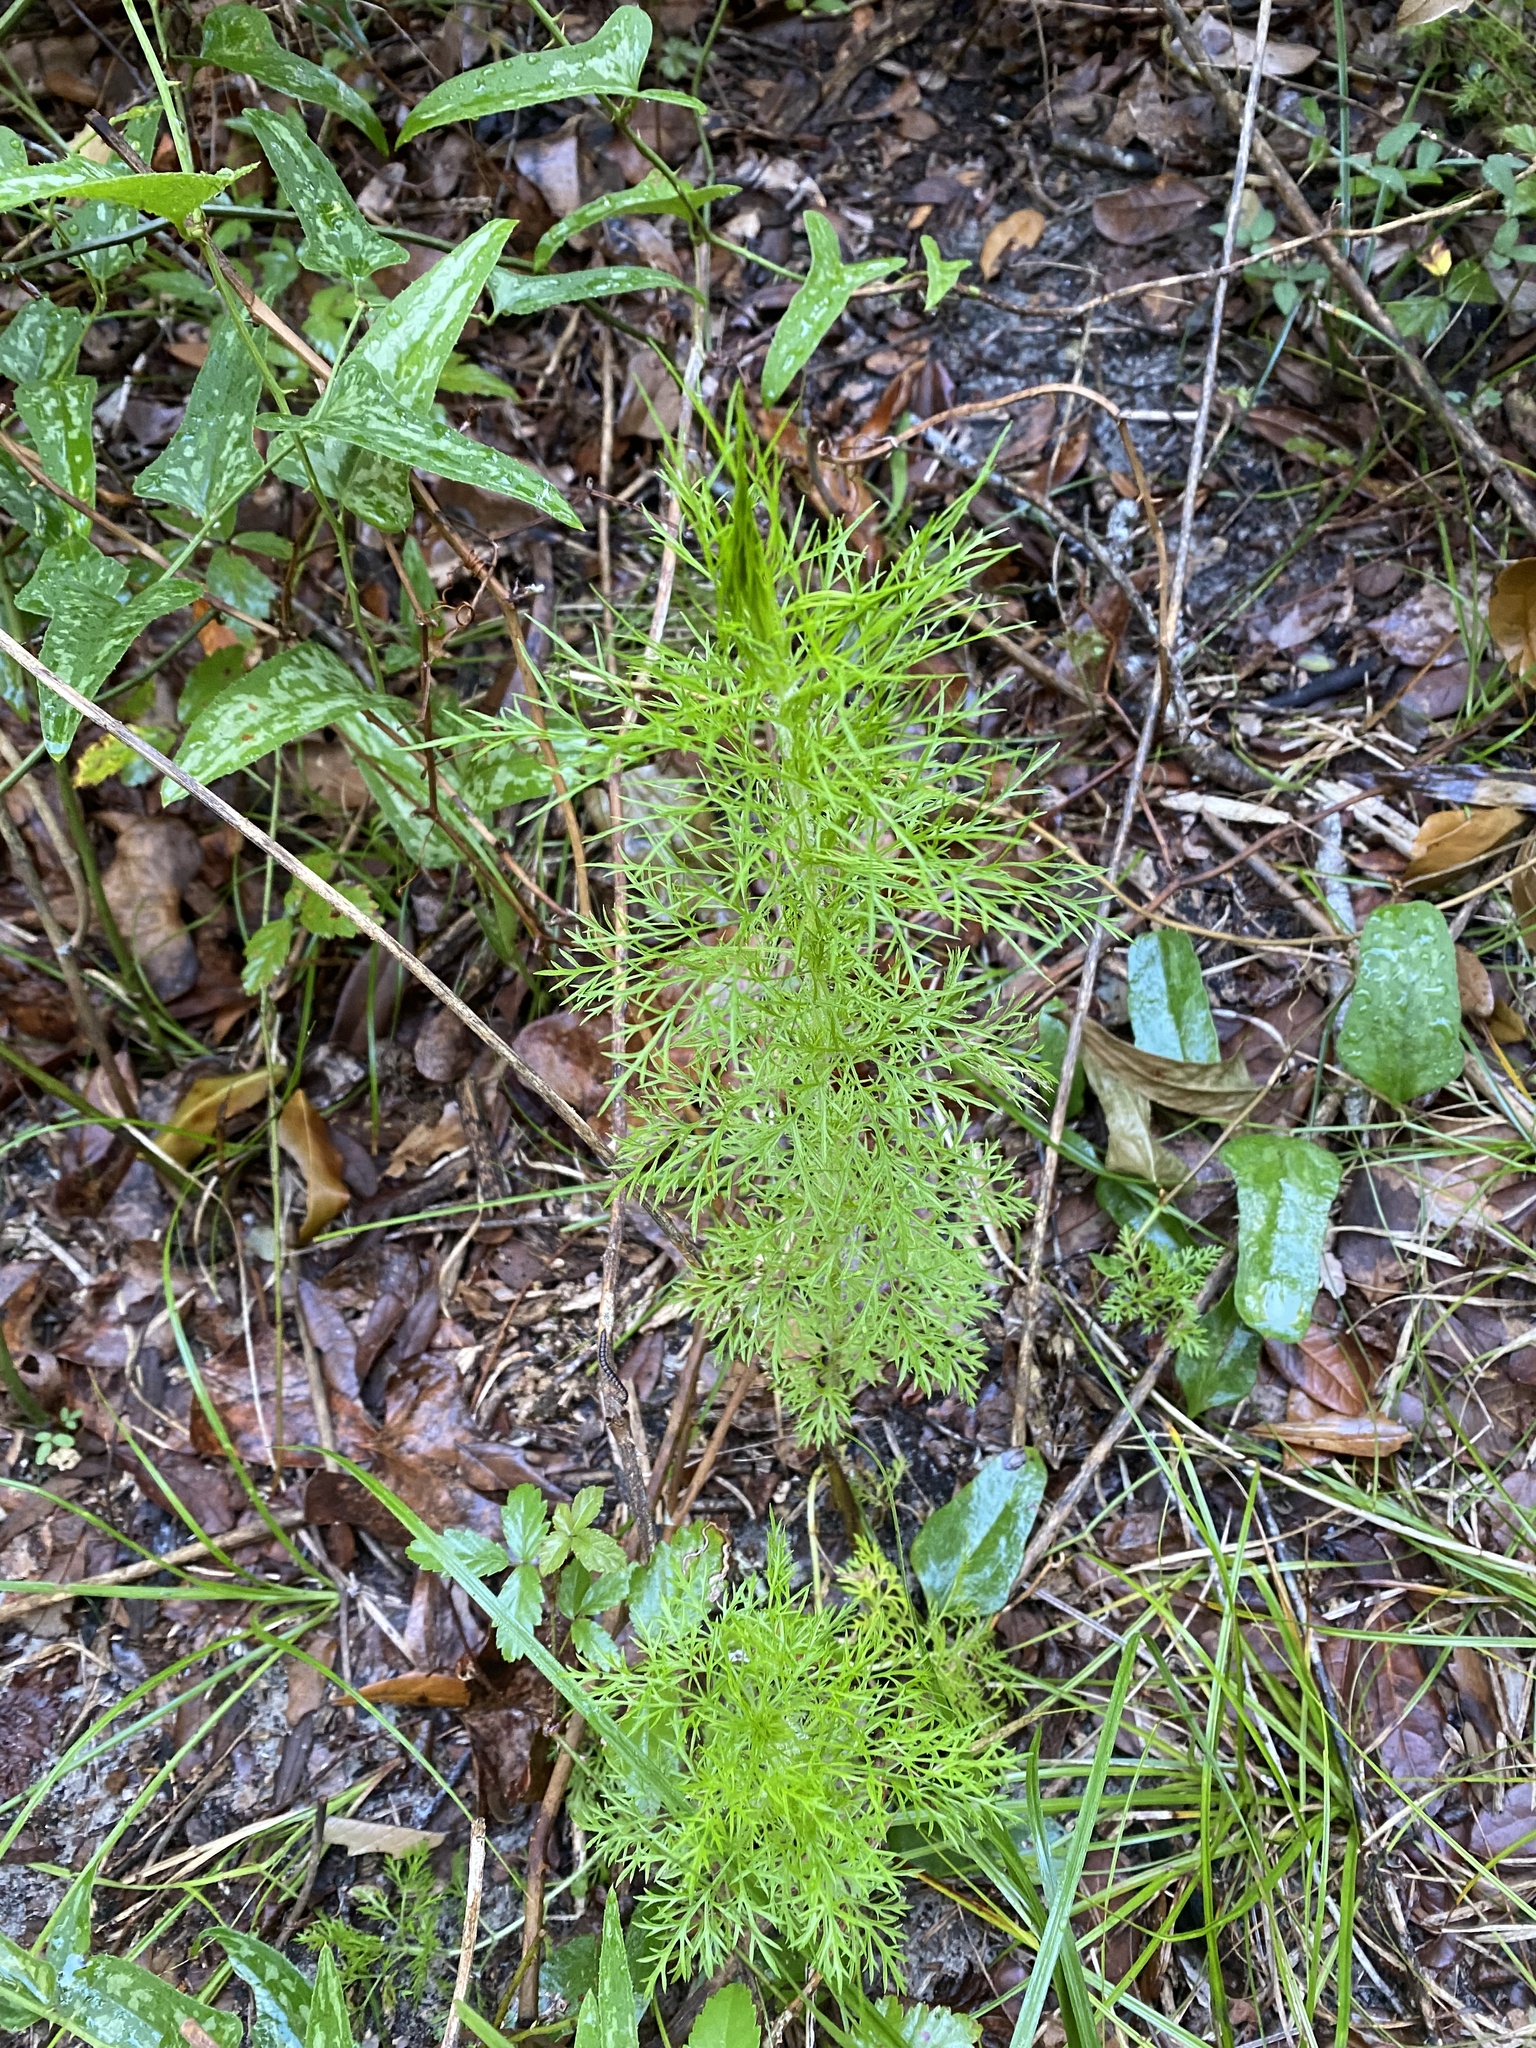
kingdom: Plantae
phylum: Tracheophyta
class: Magnoliopsida
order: Asterales
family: Asteraceae
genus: Eupatorium
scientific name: Eupatorium capillifolium
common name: Dog-fennel
